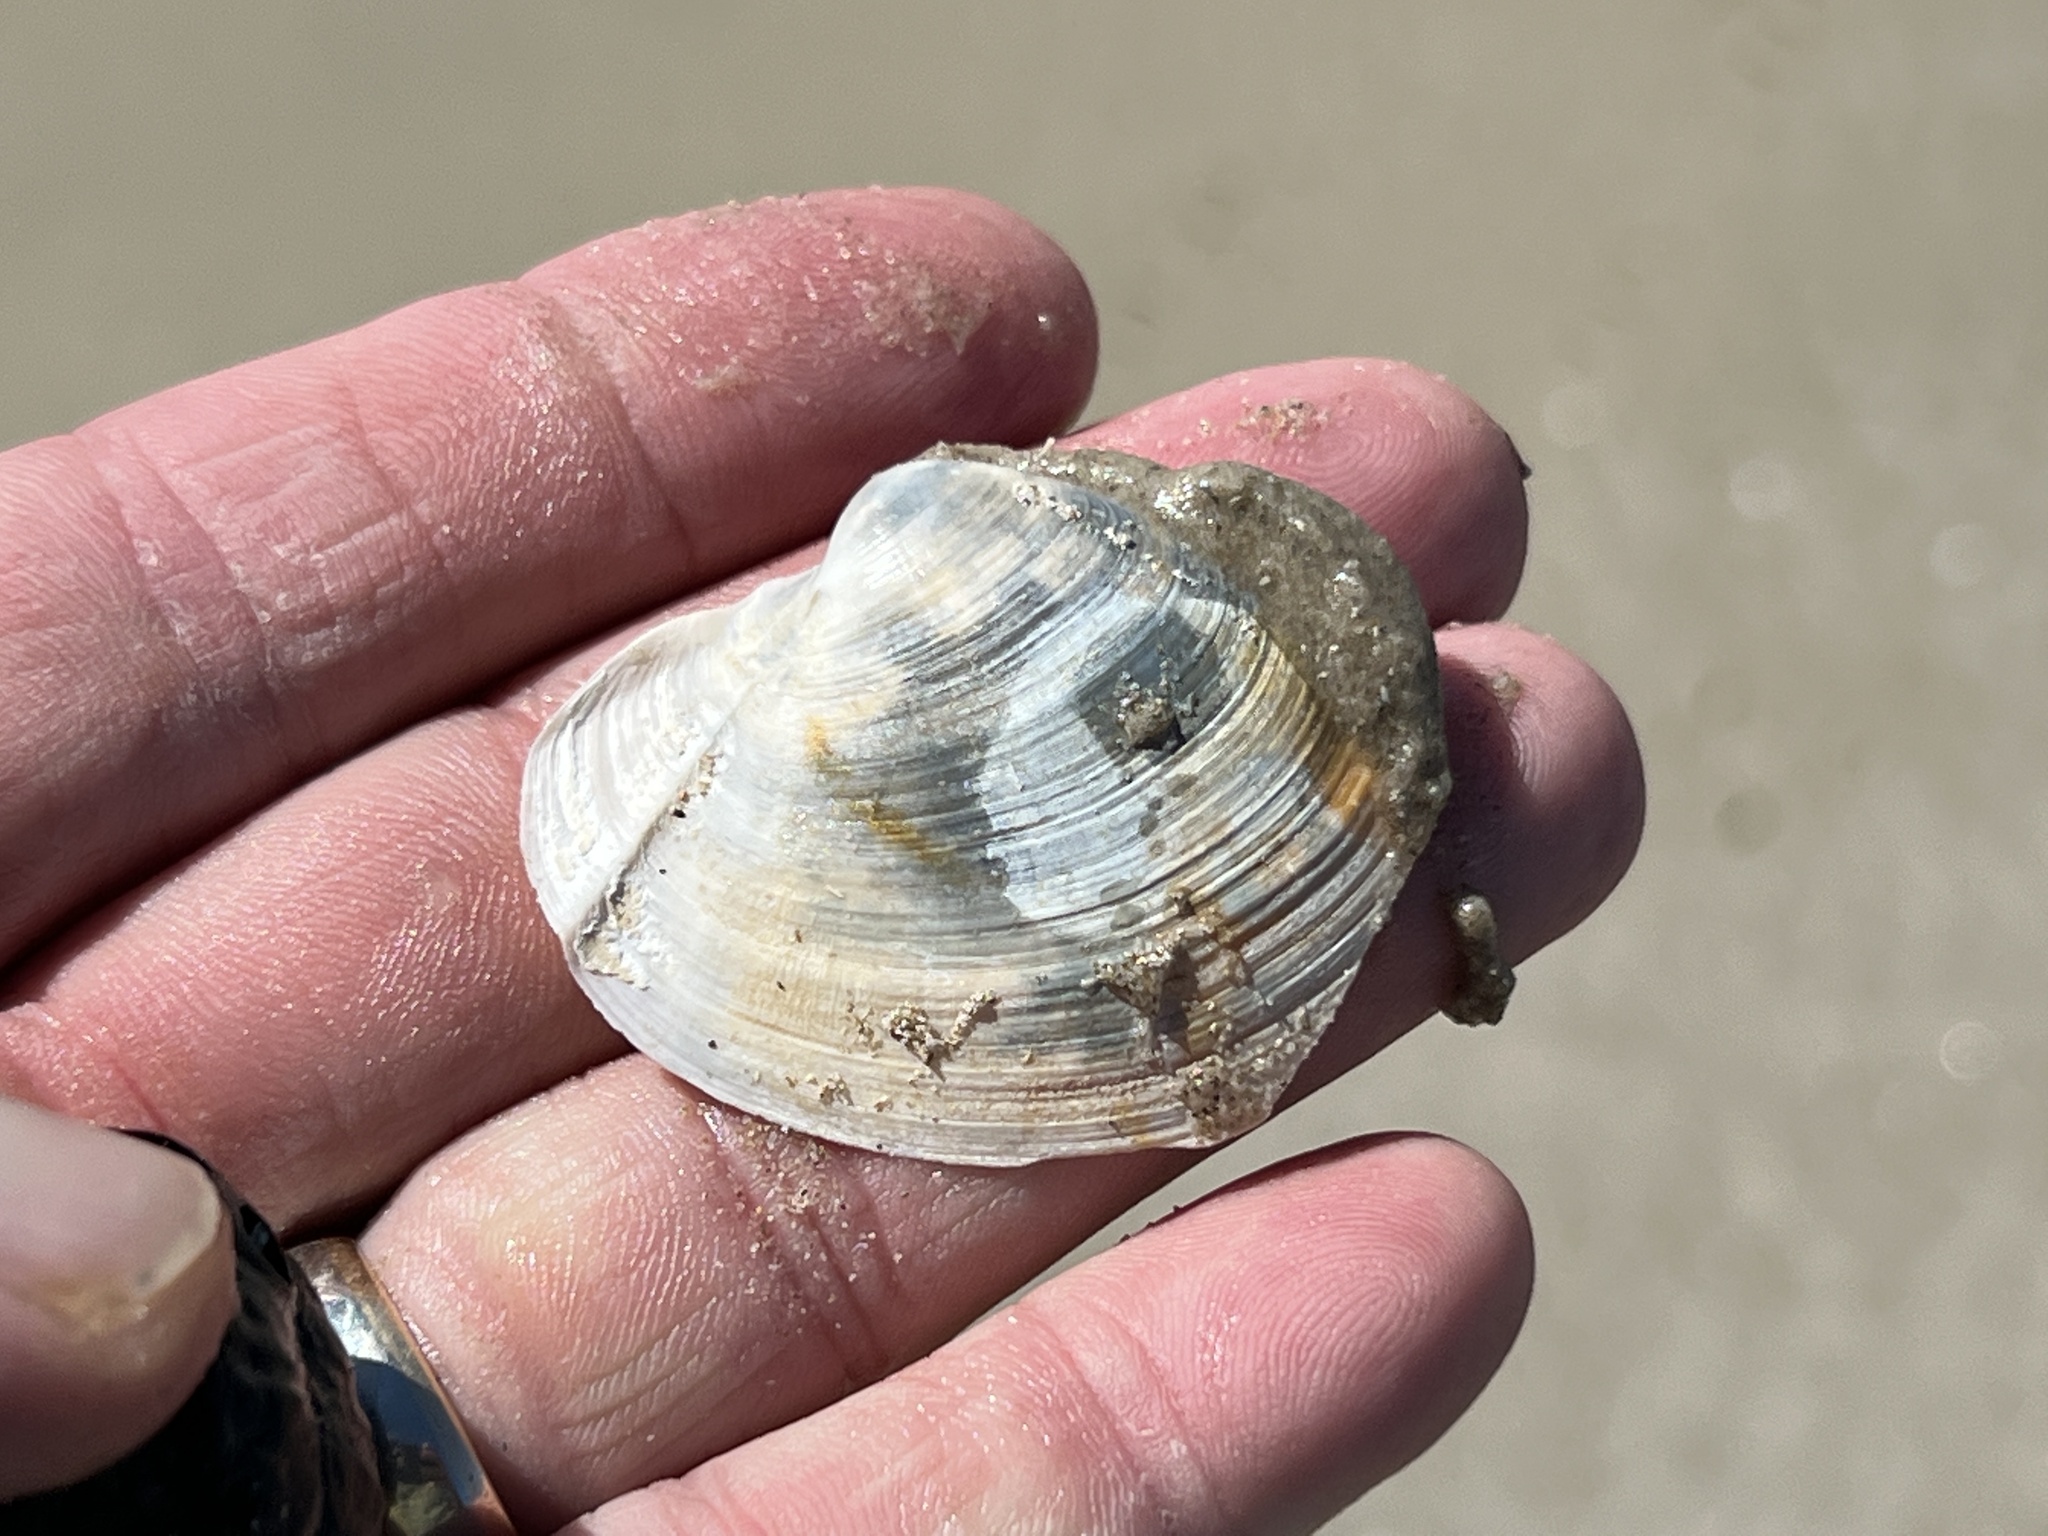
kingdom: Animalia
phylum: Mollusca
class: Bivalvia
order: Venerida
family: Anatinellidae
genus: Anatina
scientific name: Anatina anatina
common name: Smooth duckclam
